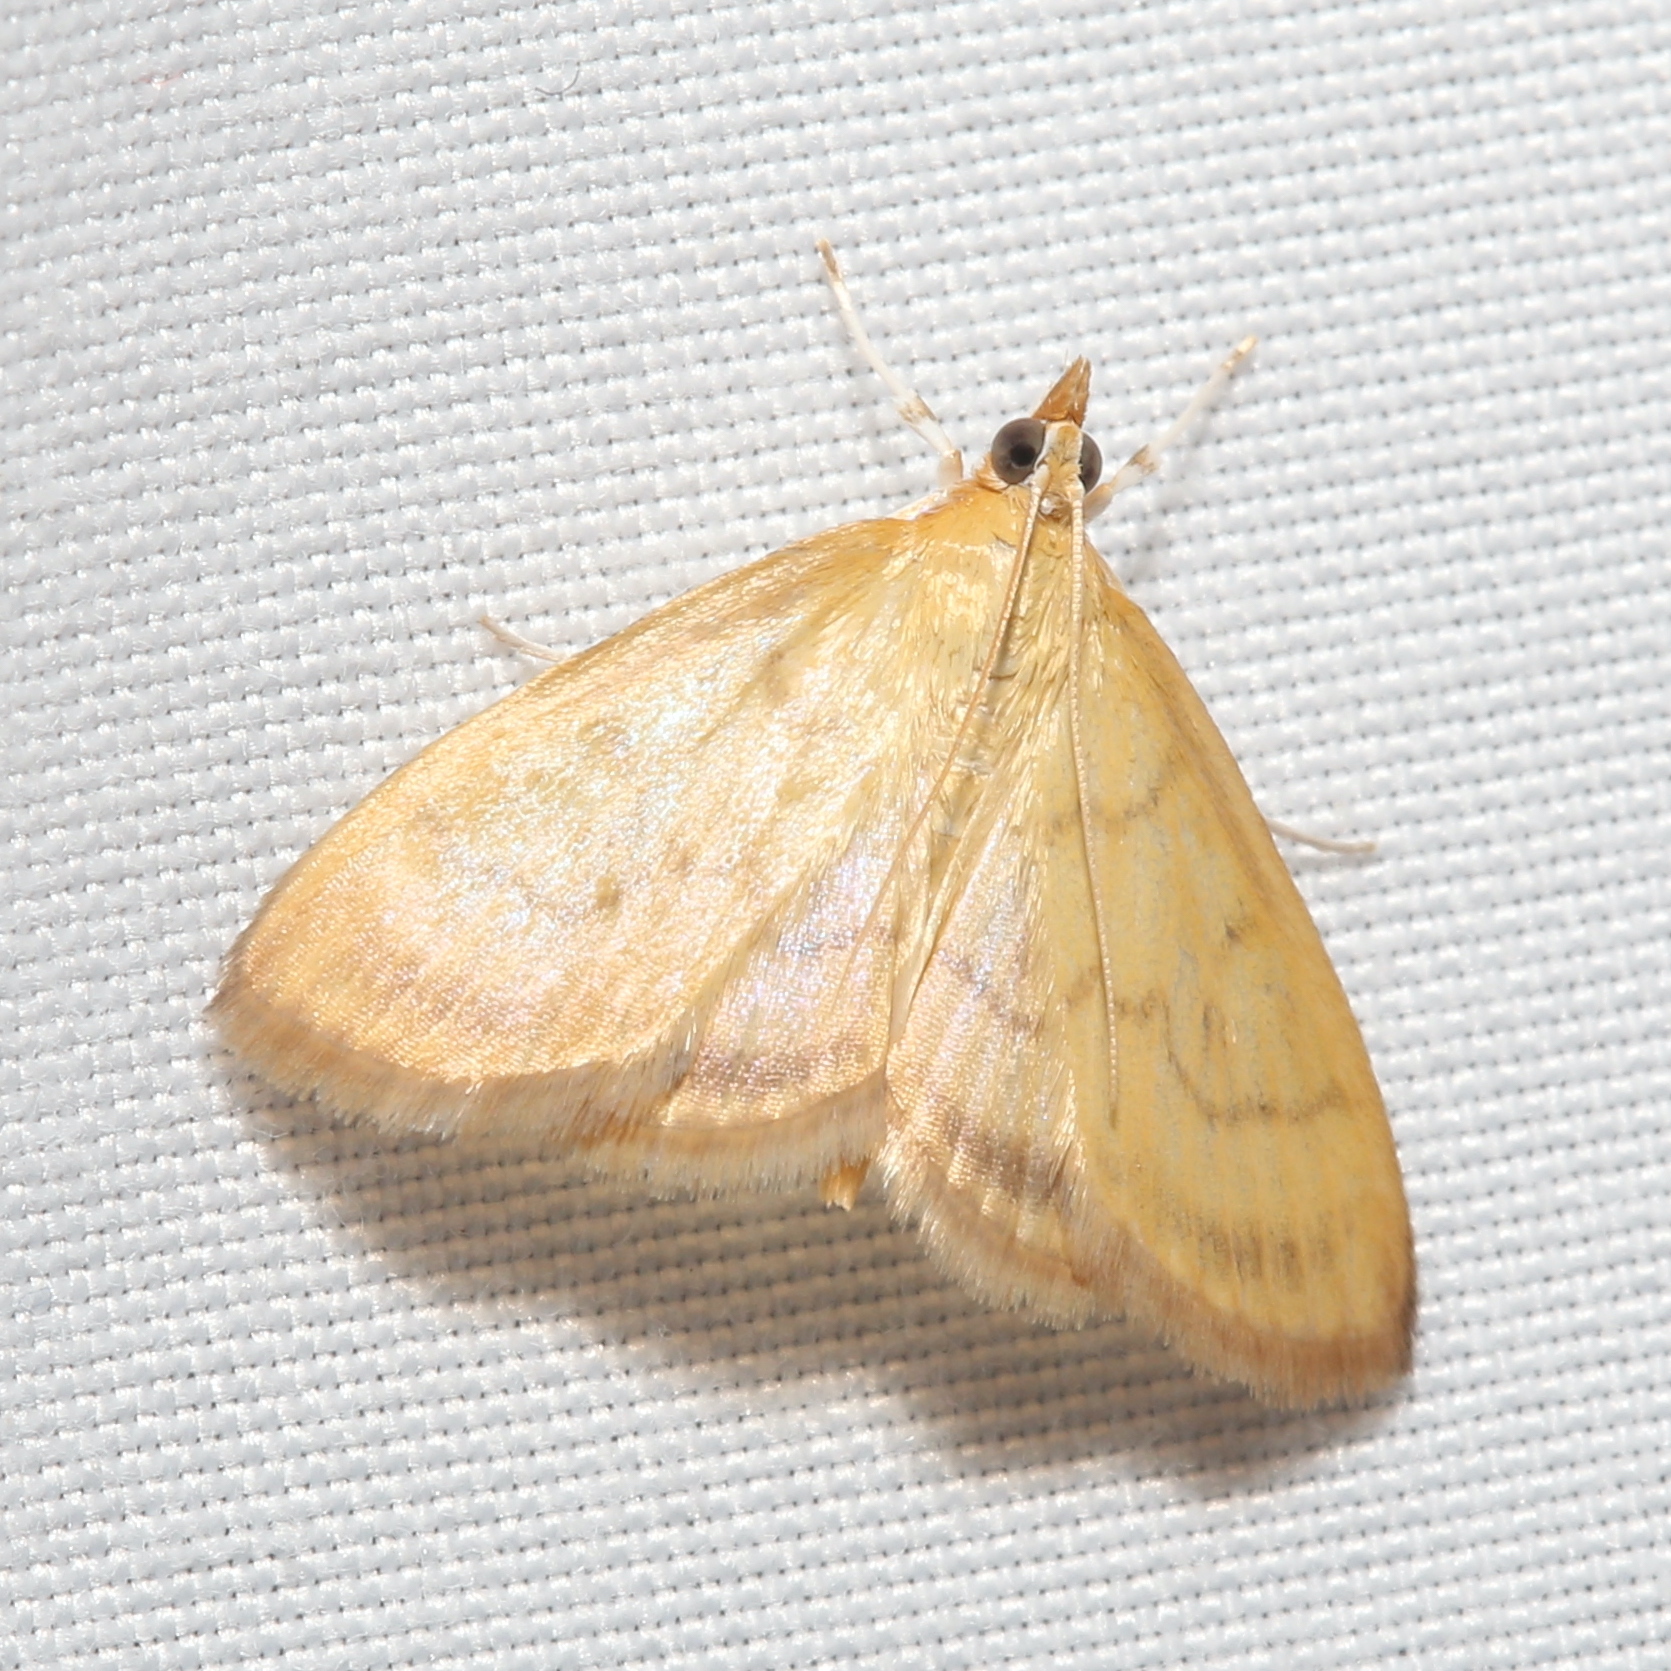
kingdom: Animalia
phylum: Arthropoda
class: Insecta
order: Lepidoptera
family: Crambidae
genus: Crocidophora
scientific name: Crocidophora tuberculalis
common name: Pale-winged crocidiphora moth
